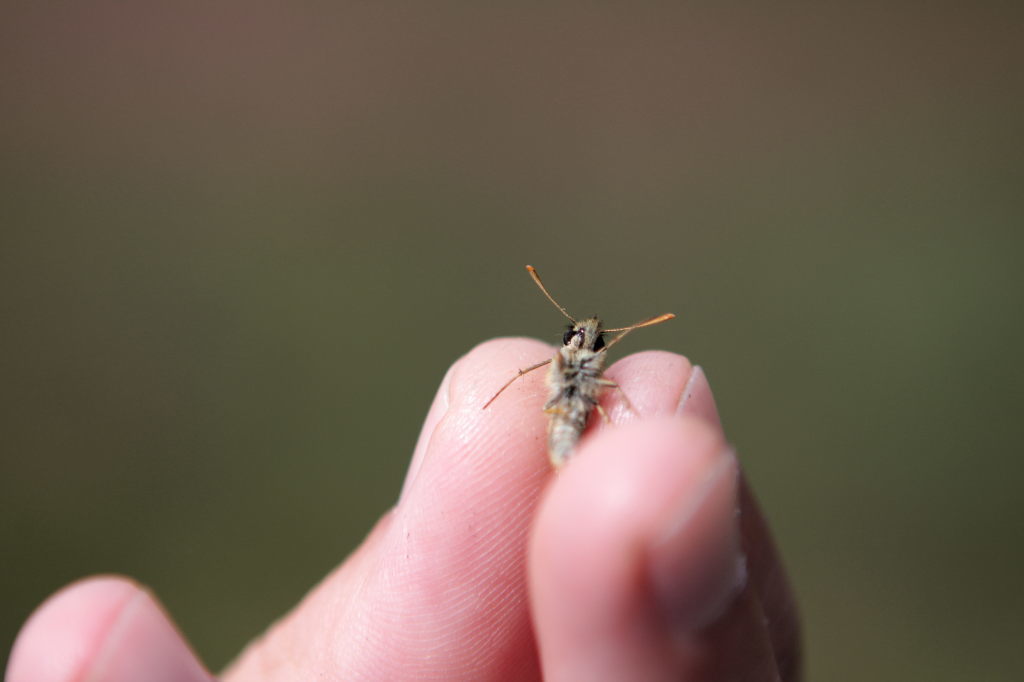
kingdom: Animalia
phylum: Arthropoda
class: Insecta
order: Lepidoptera
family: Hesperiidae
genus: Thymelicus
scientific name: Thymelicus sylvestris
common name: Small skipper
